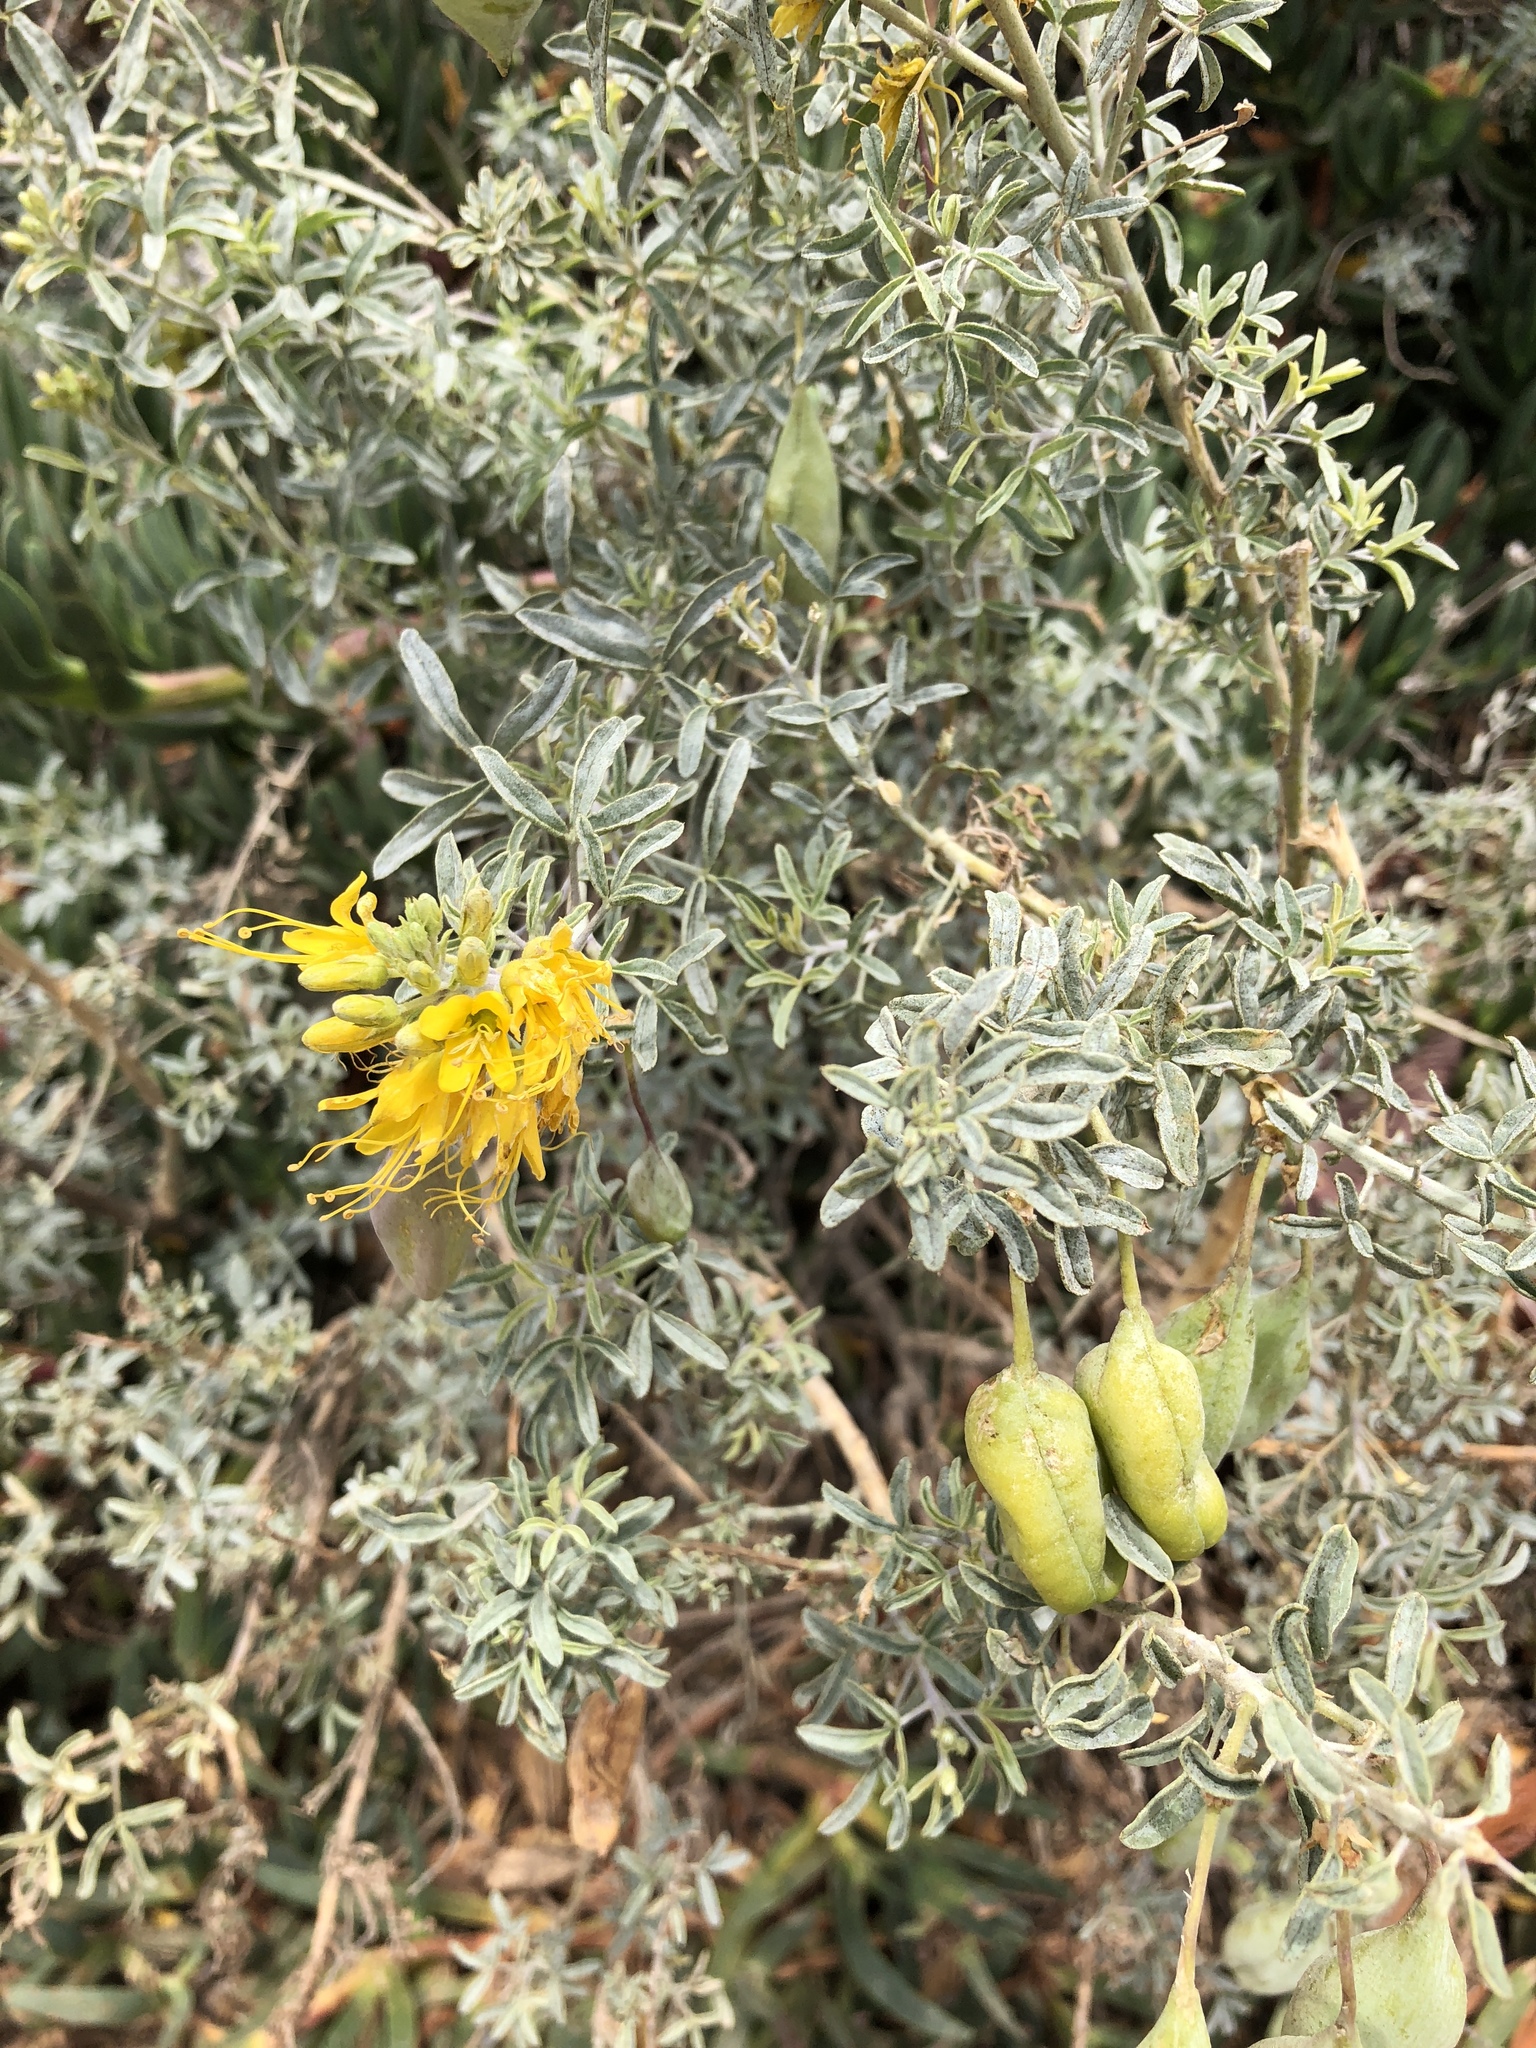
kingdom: Plantae
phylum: Tracheophyta
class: Magnoliopsida
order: Brassicales
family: Cleomaceae
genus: Cleomella
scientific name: Cleomella arborea
